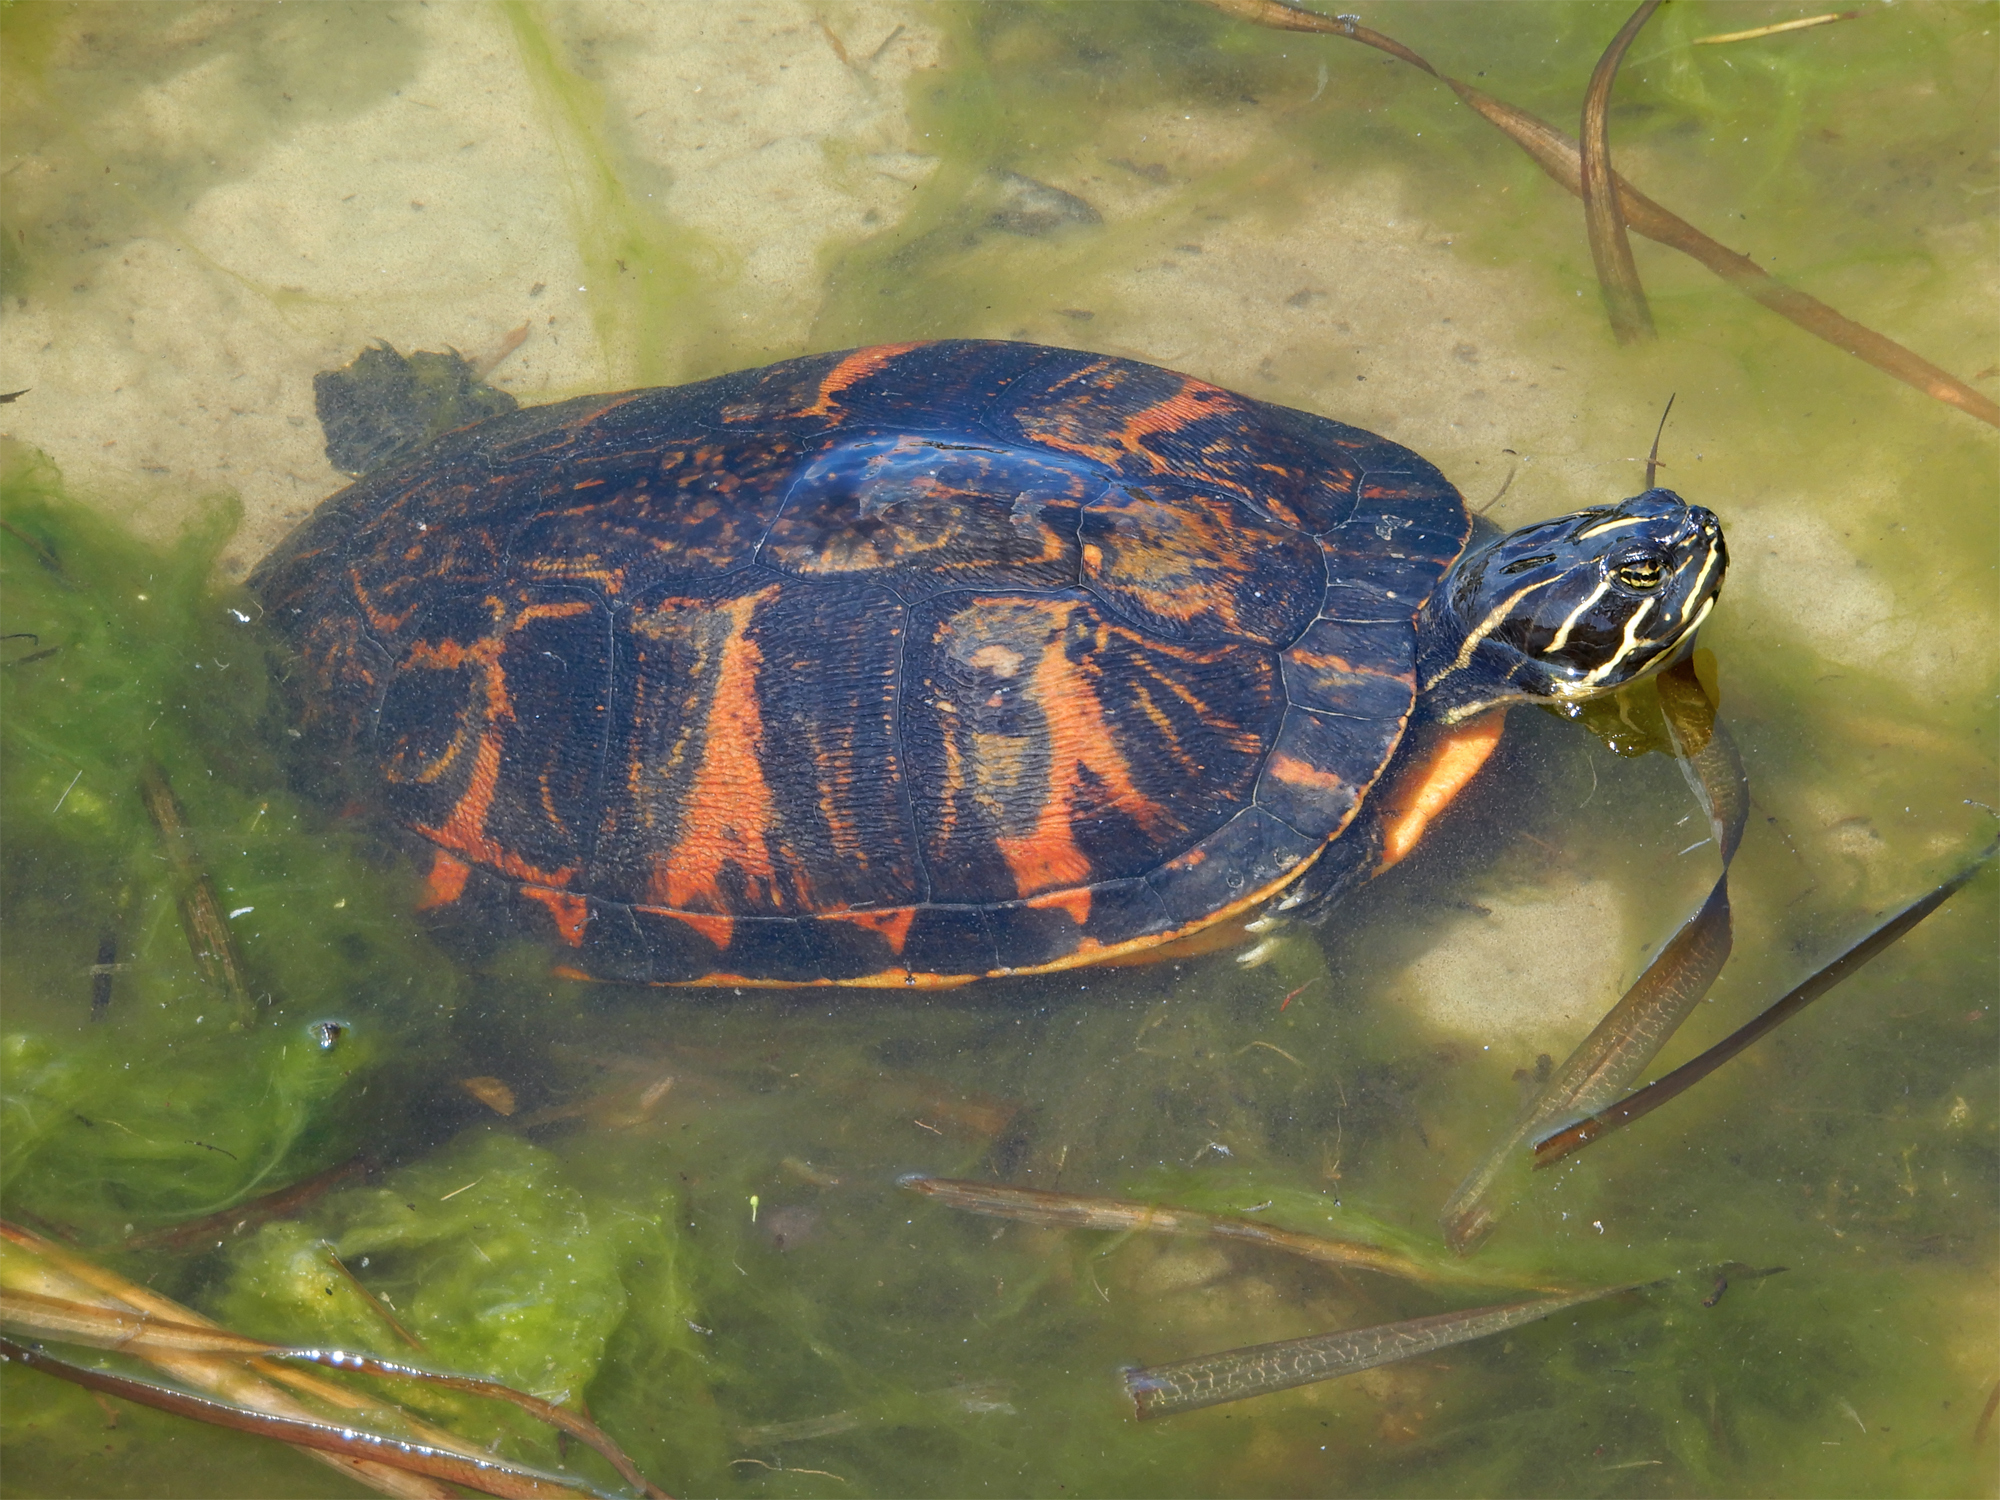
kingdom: Animalia
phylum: Chordata
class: Testudines
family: Emydidae
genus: Pseudemys
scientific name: Pseudemys nelsoni
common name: Florida red-bellied turtle
